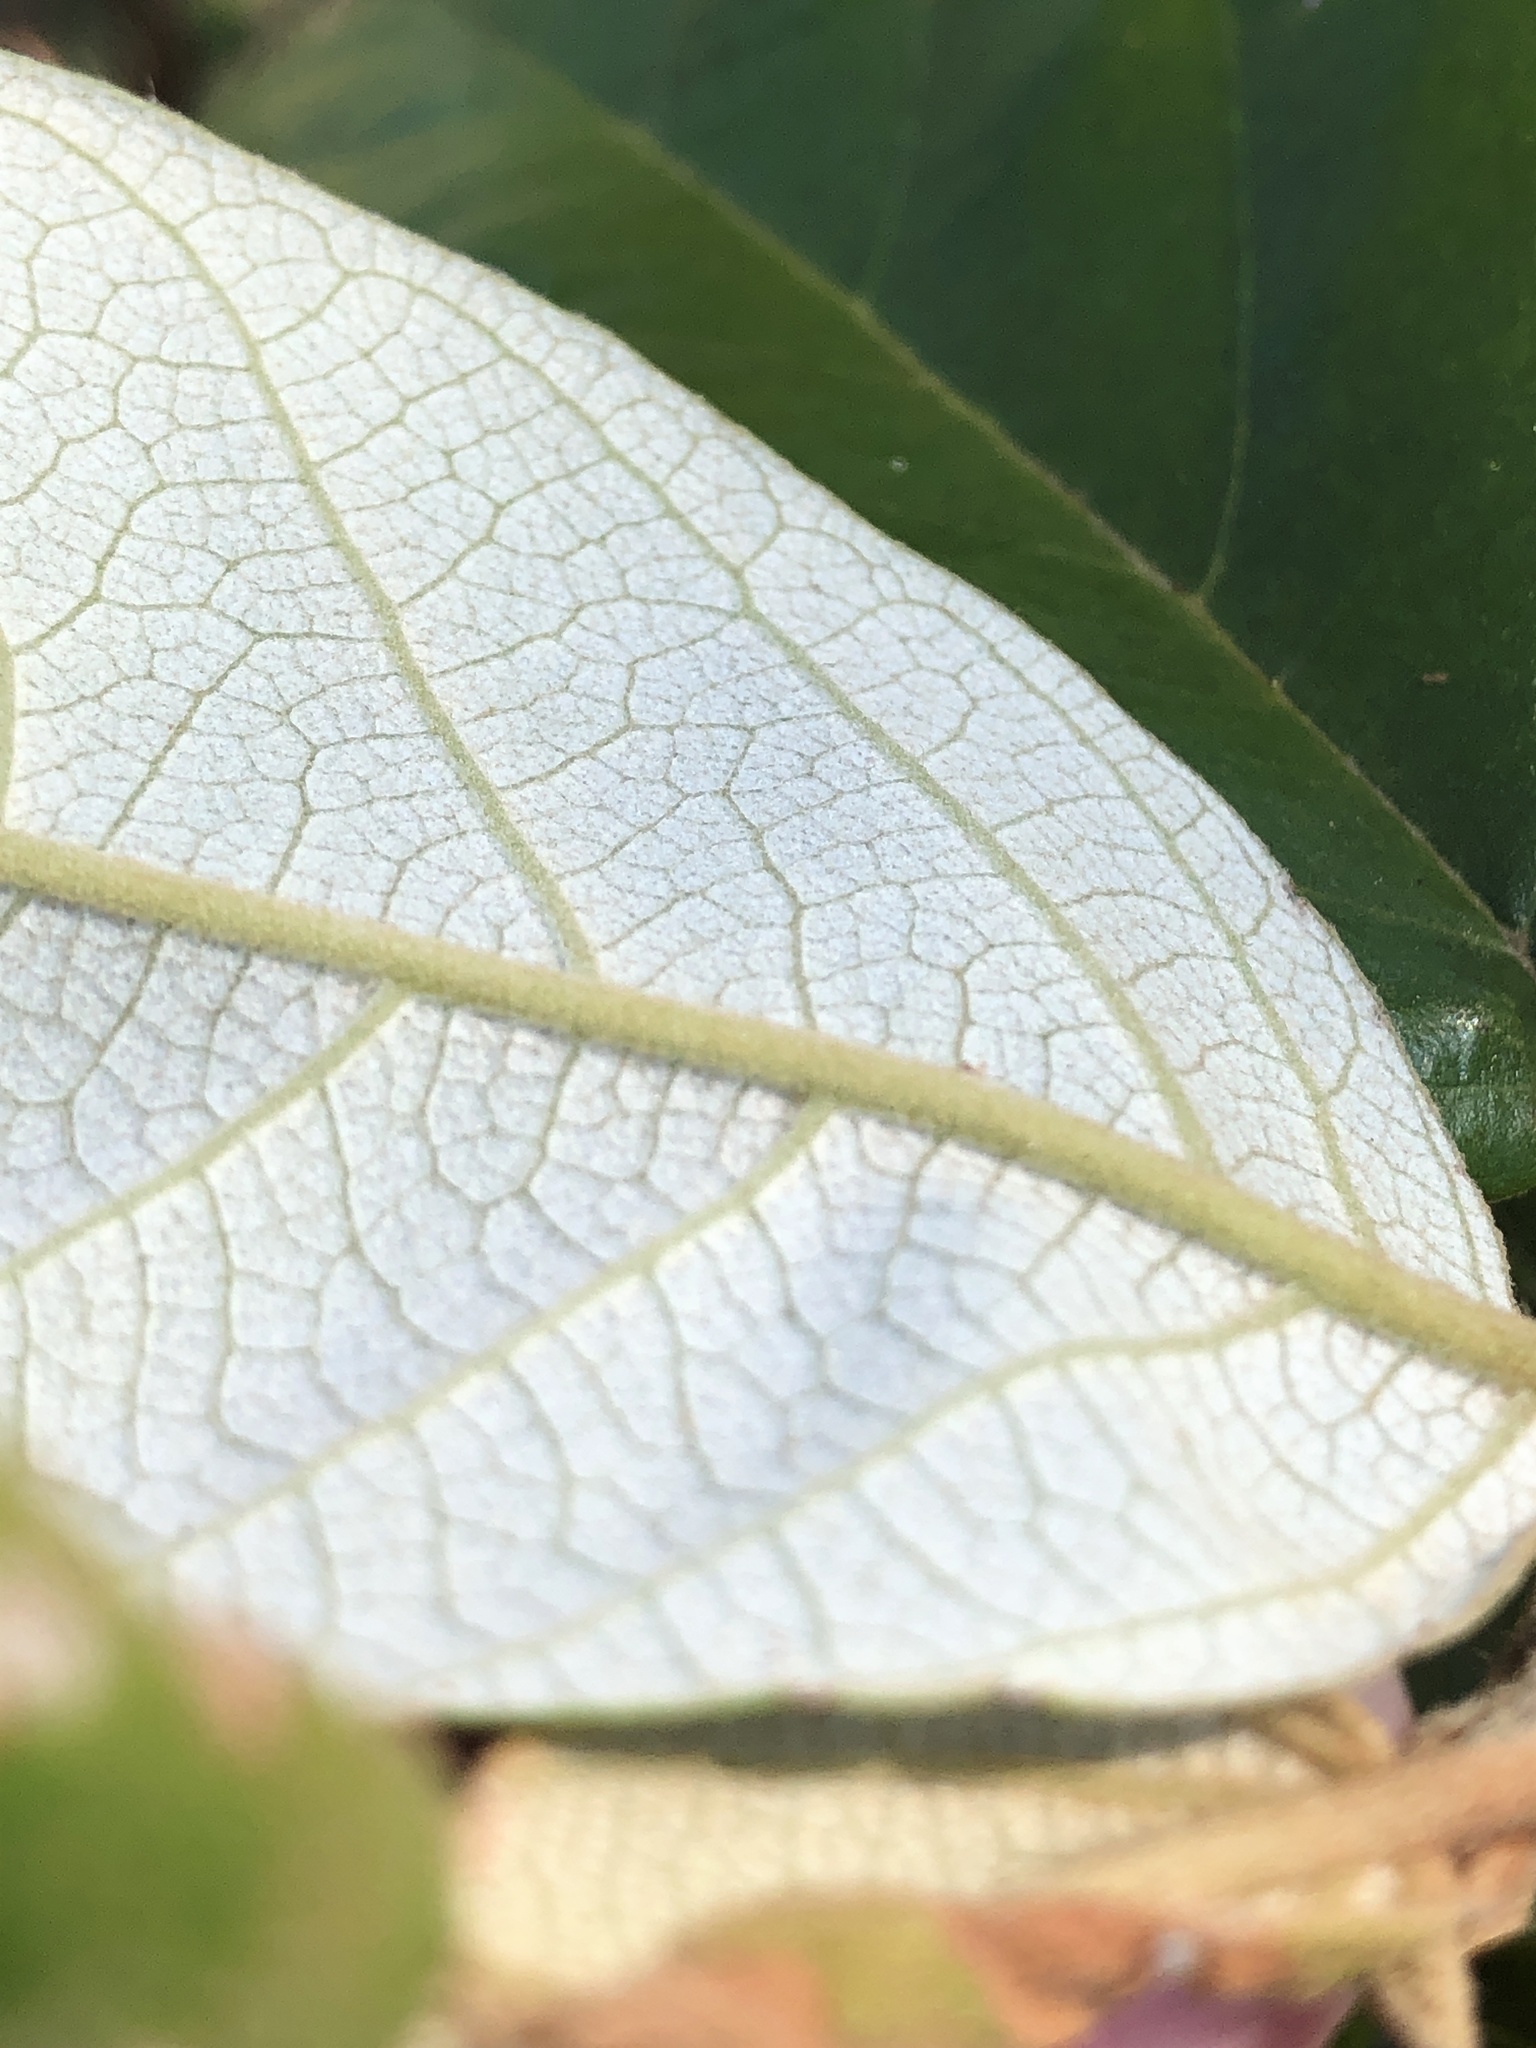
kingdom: Plantae
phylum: Tracheophyta
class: Magnoliopsida
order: Rosales
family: Rhamnaceae
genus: Alphitonia
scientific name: Alphitonia excelsa
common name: Red ash
